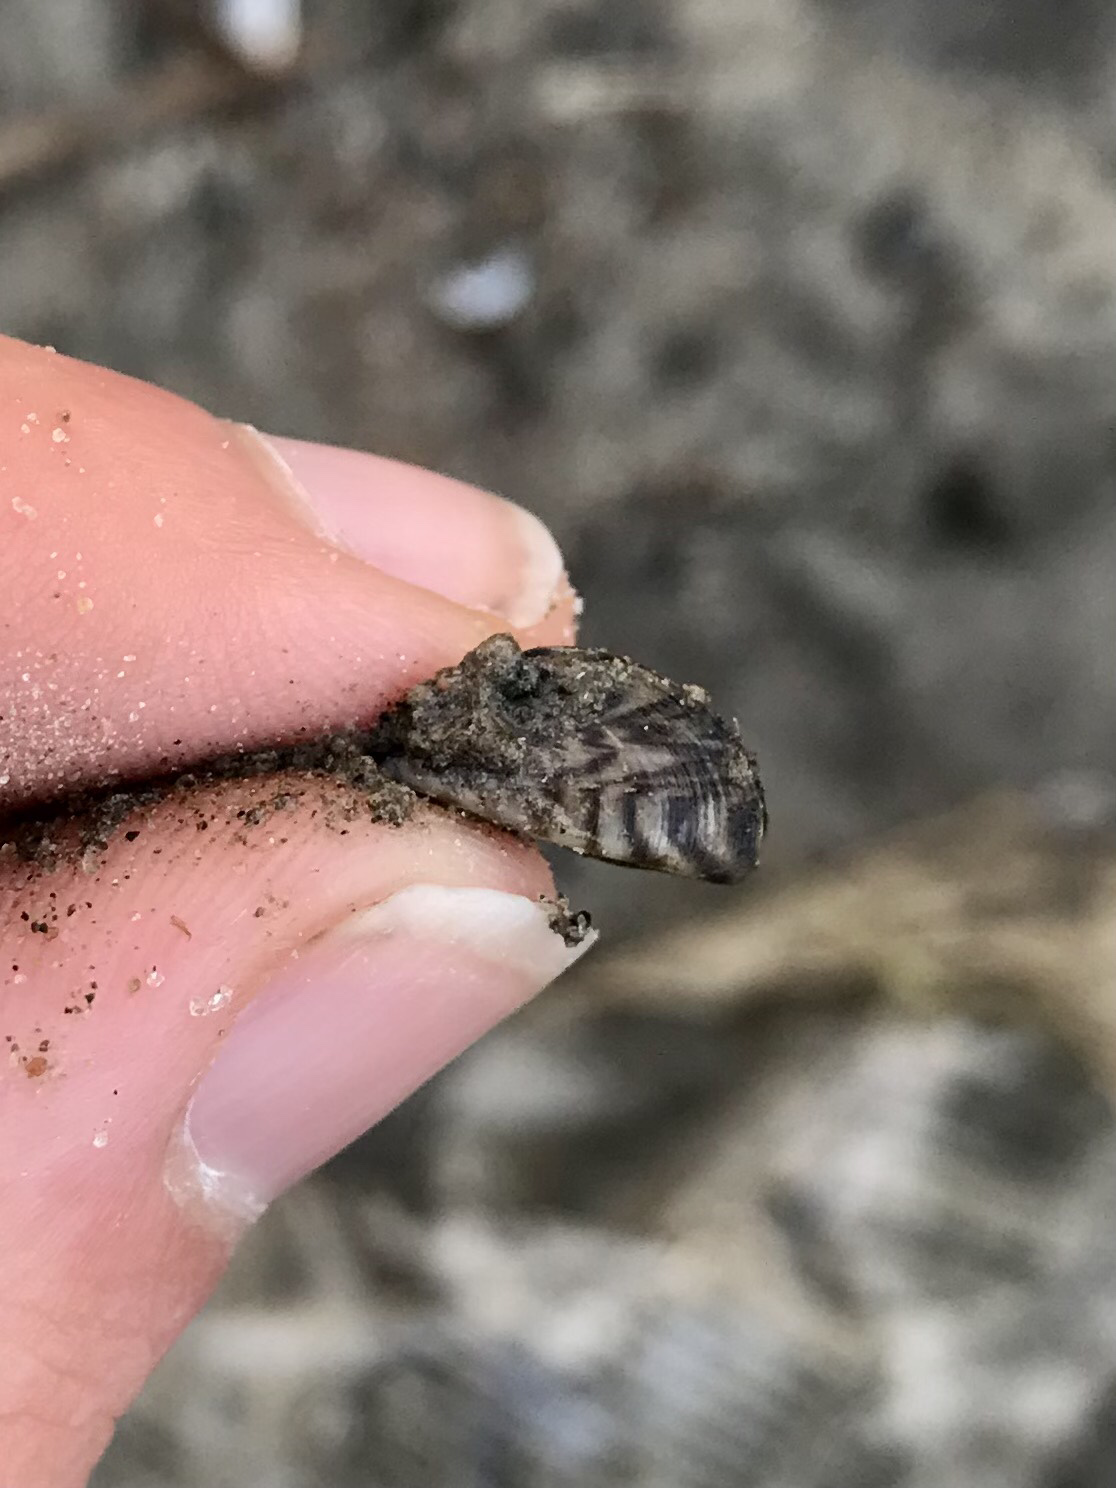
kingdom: Animalia
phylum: Mollusca
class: Bivalvia
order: Myida
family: Dreissenidae
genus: Dreissena
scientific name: Dreissena polymorpha
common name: Zebra mussel
